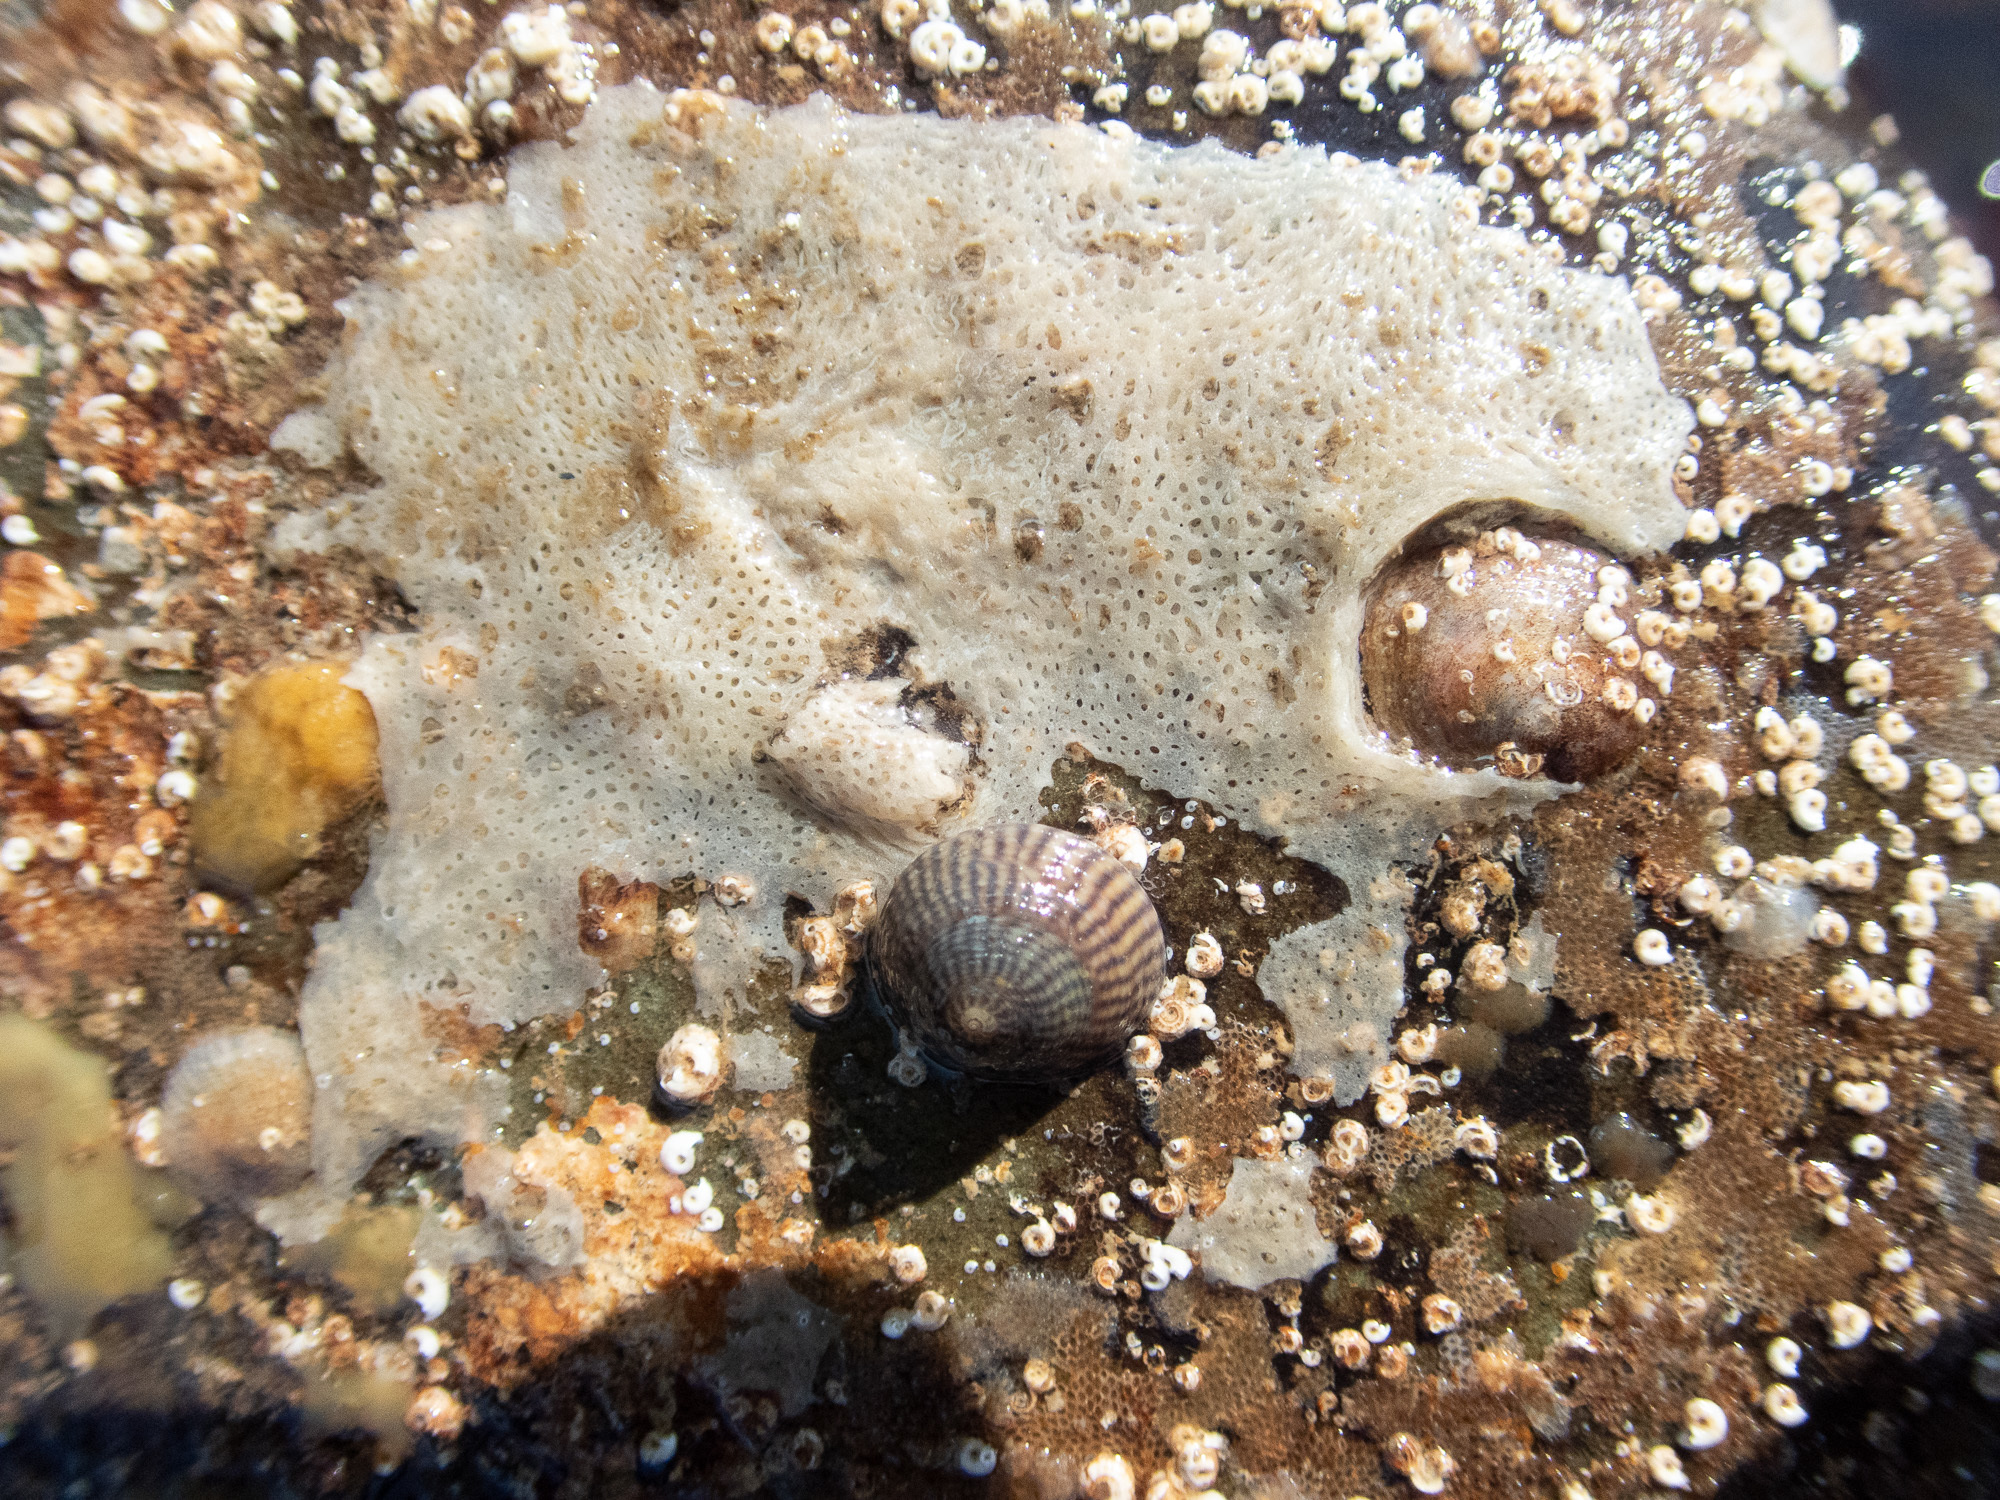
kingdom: Animalia
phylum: Porifera
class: Calcarea
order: Clathrinida
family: Clathrinidae
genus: Clathrina
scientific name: Clathrina coriacea
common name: White clathrina
